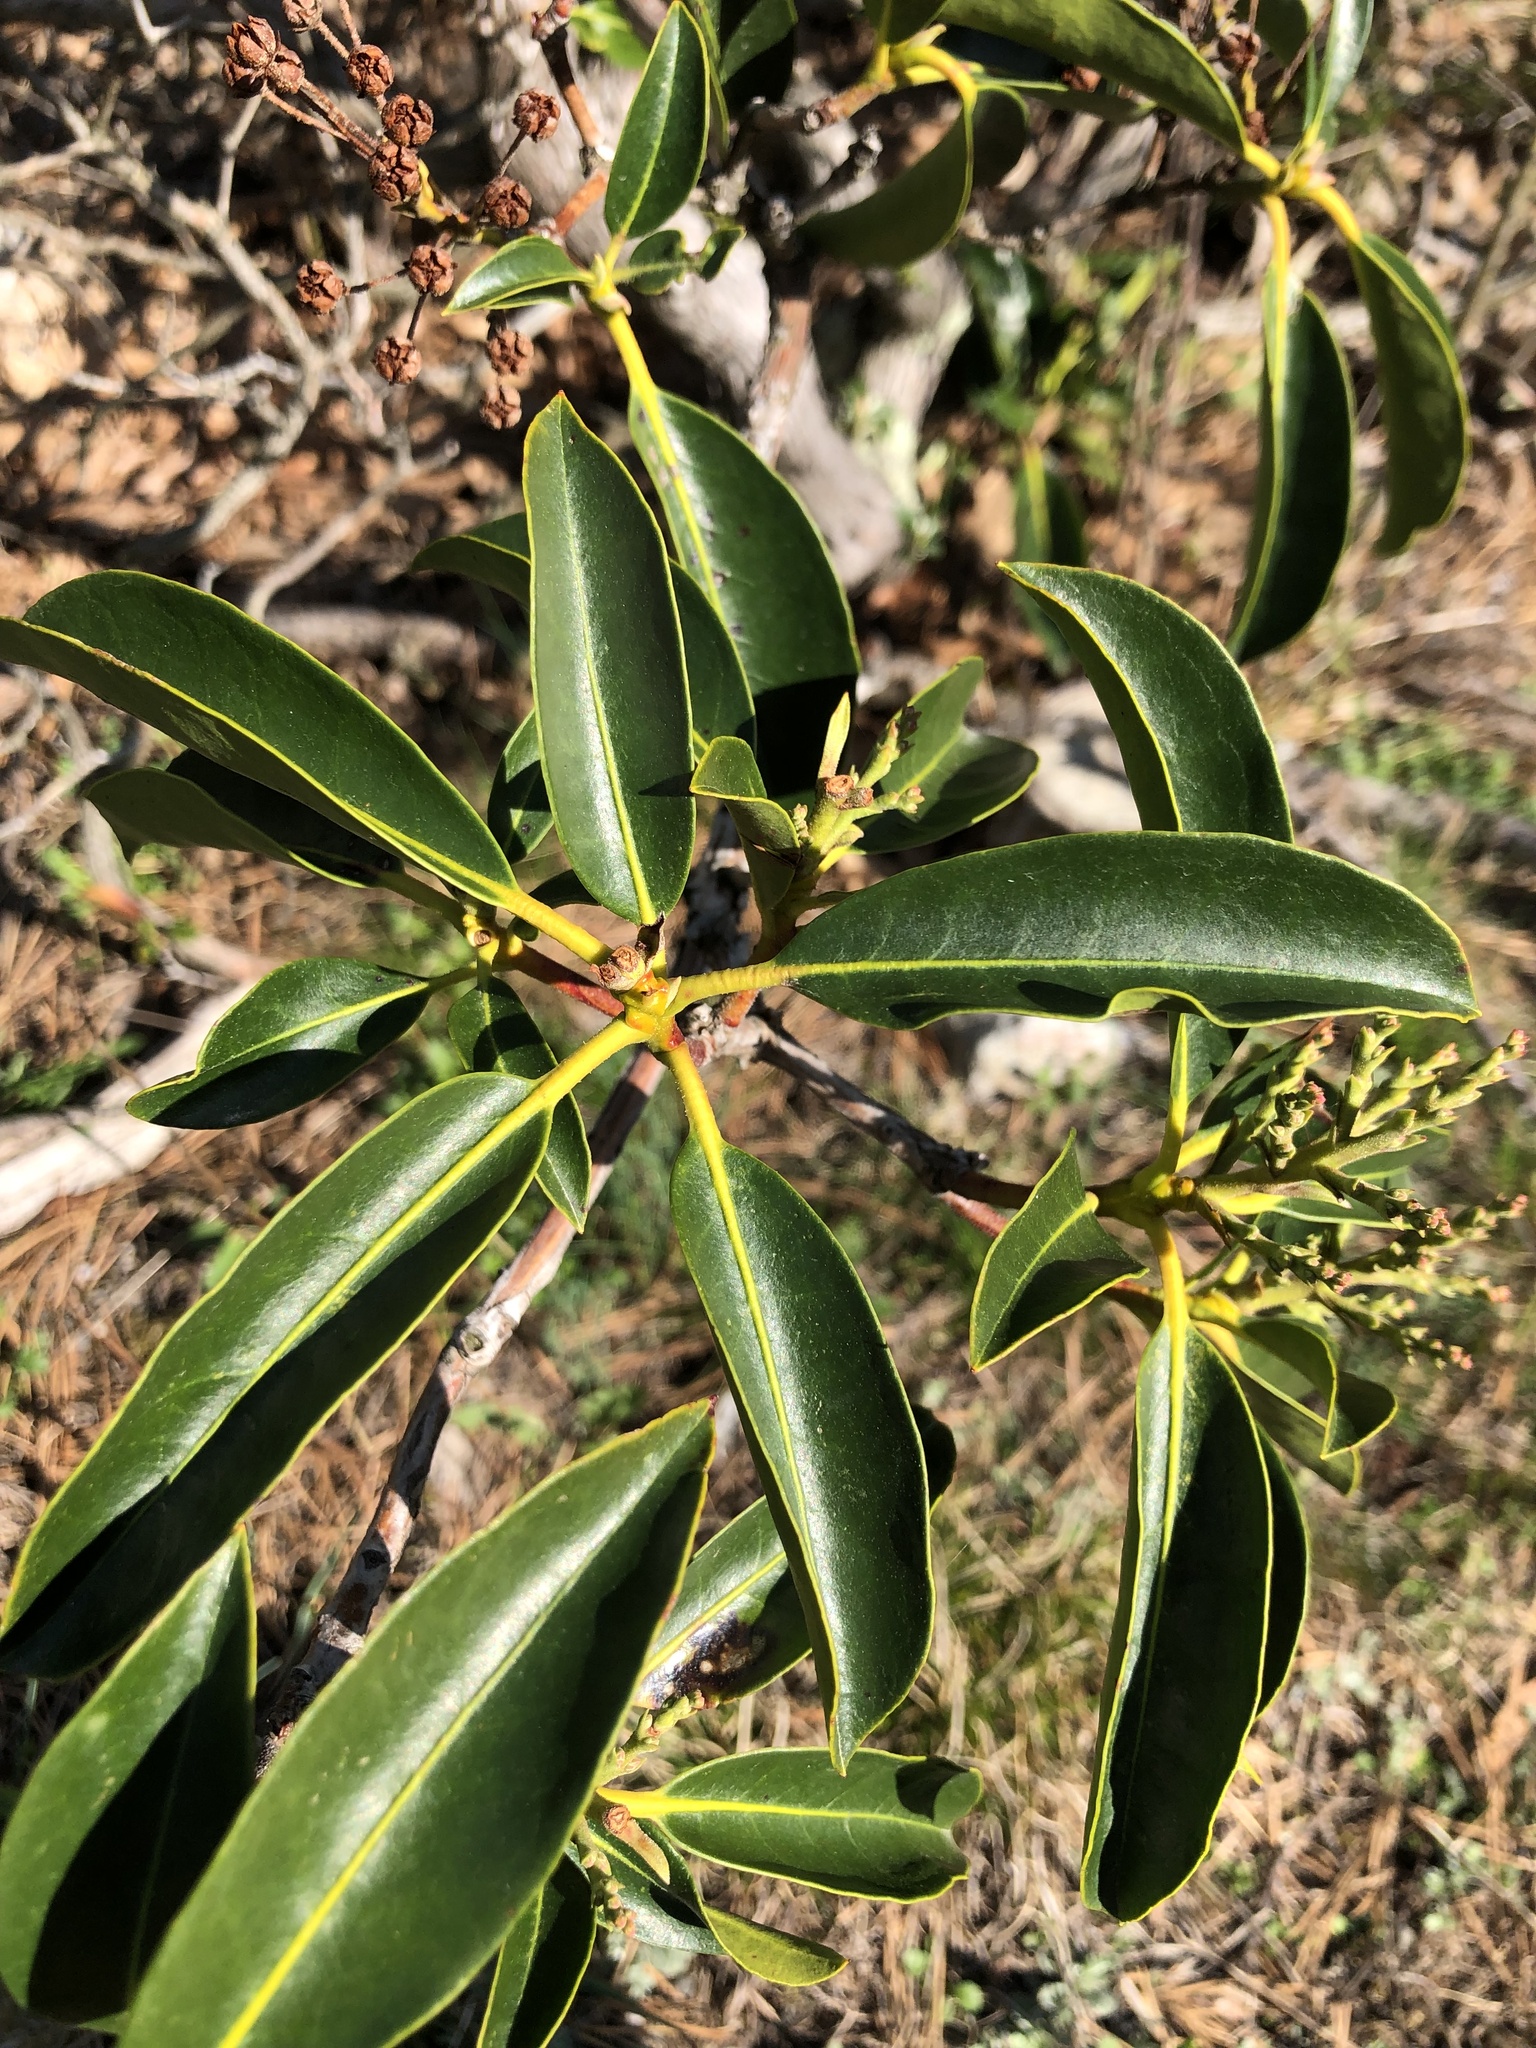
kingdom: Plantae
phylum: Tracheophyta
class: Magnoliopsida
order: Ericales
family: Ericaceae
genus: Kalmia
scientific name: Kalmia latifolia
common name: Mountain-laurel
